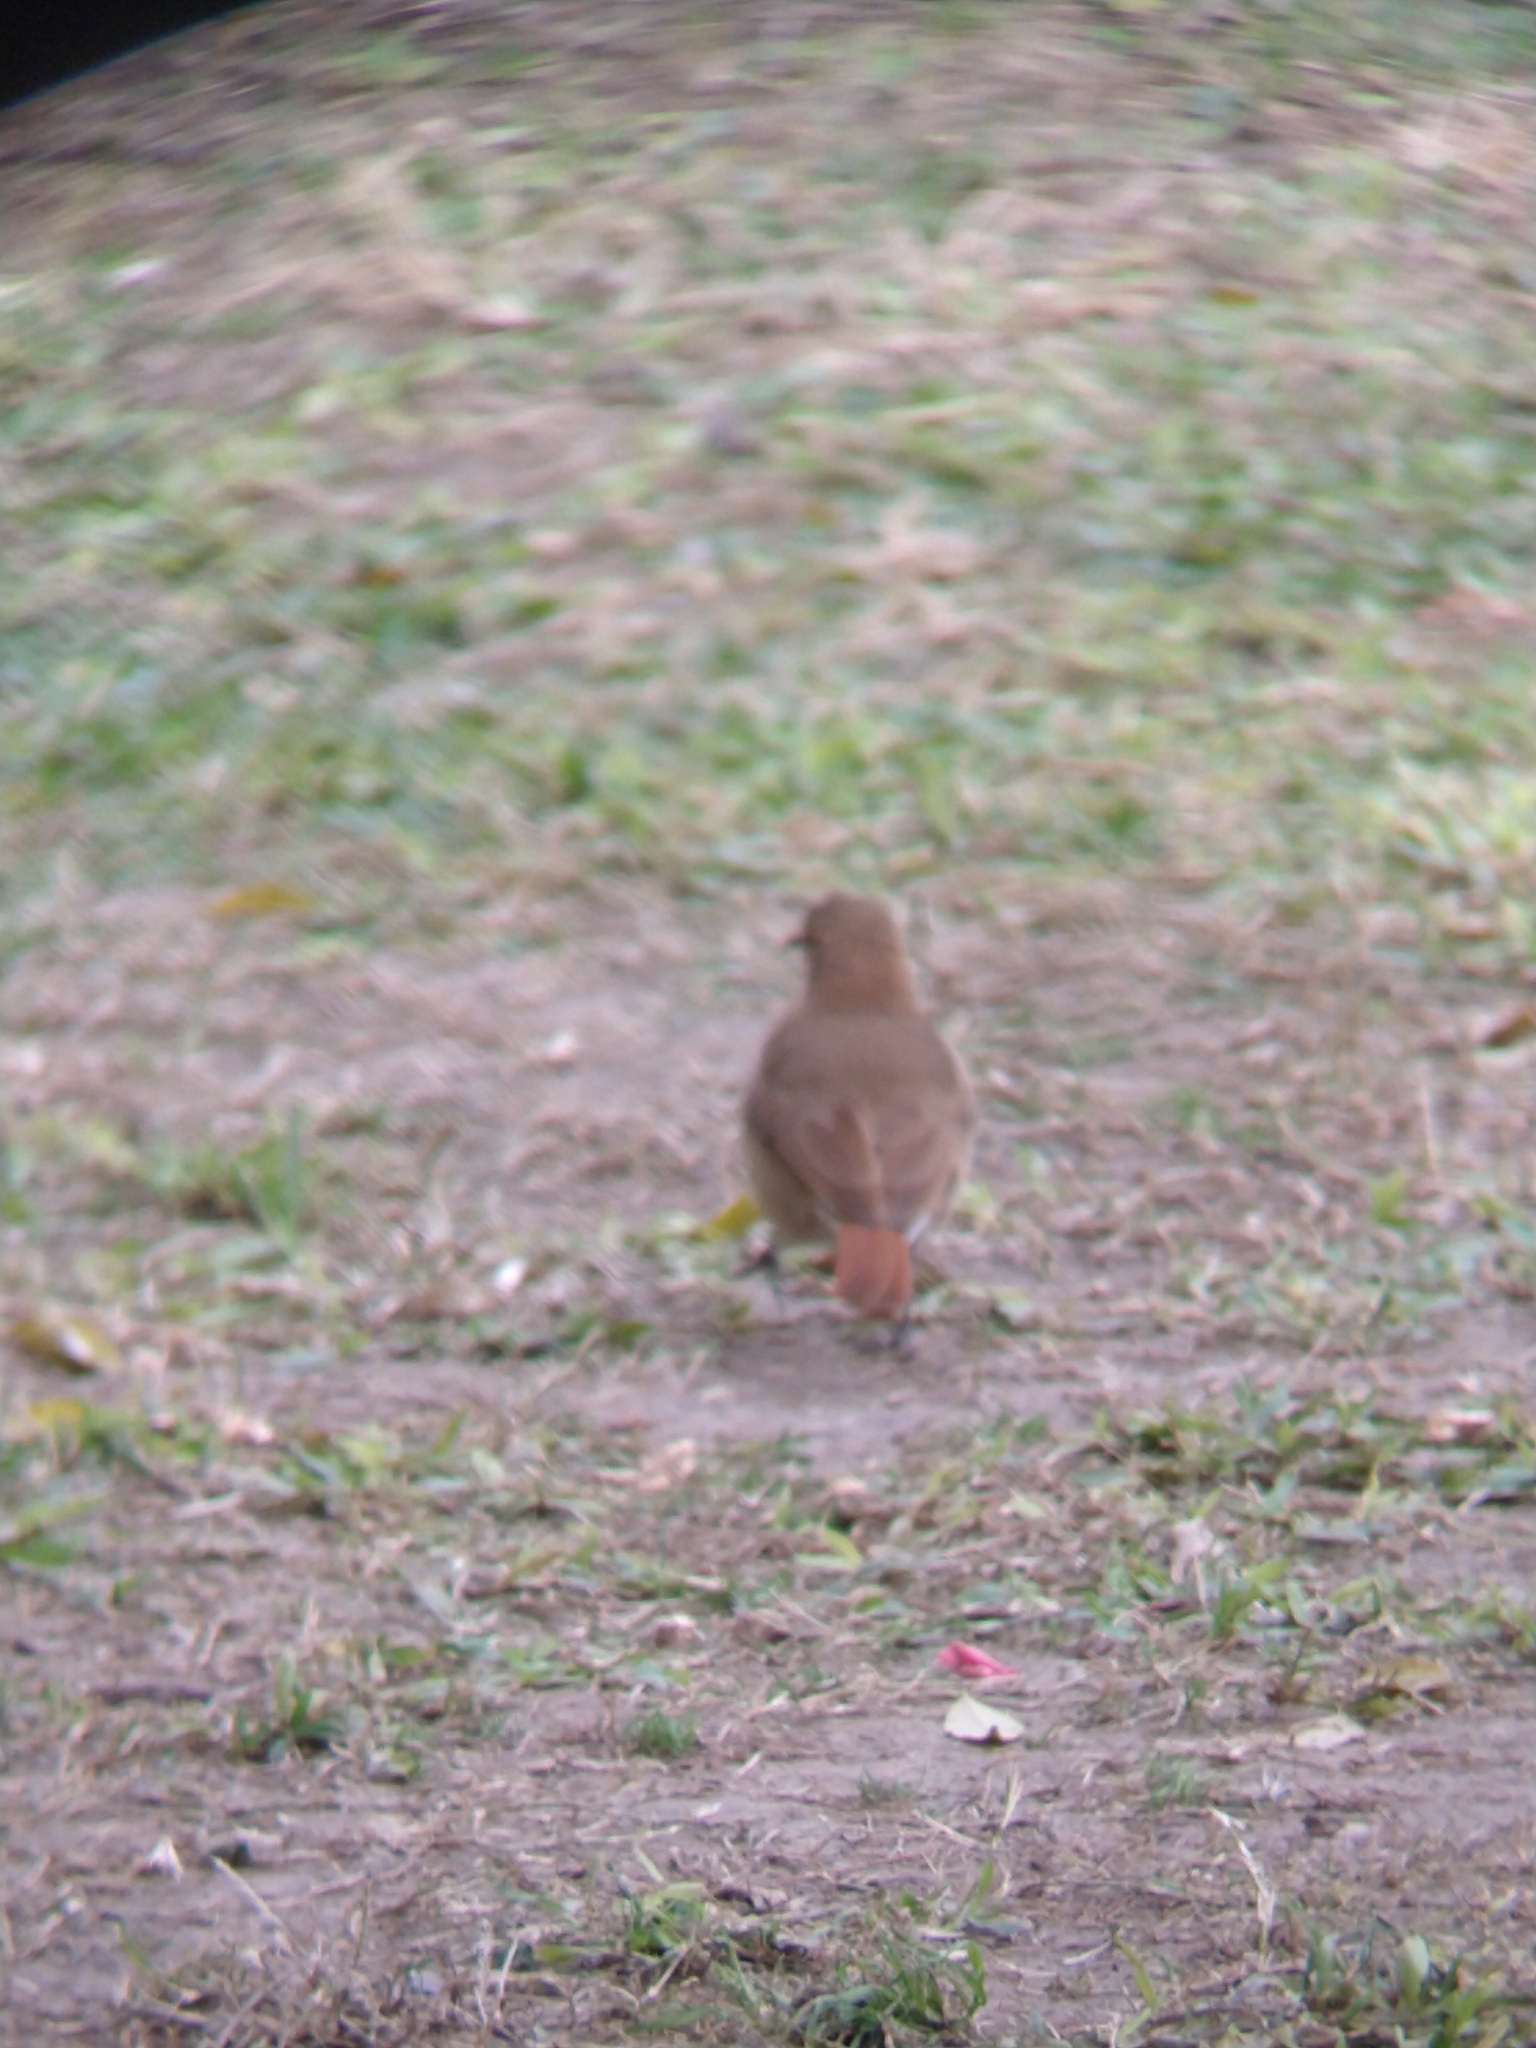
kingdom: Animalia
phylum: Chordata
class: Aves
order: Passeriformes
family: Furnariidae
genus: Furnarius
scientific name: Furnarius rufus
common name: Rufous hornero
